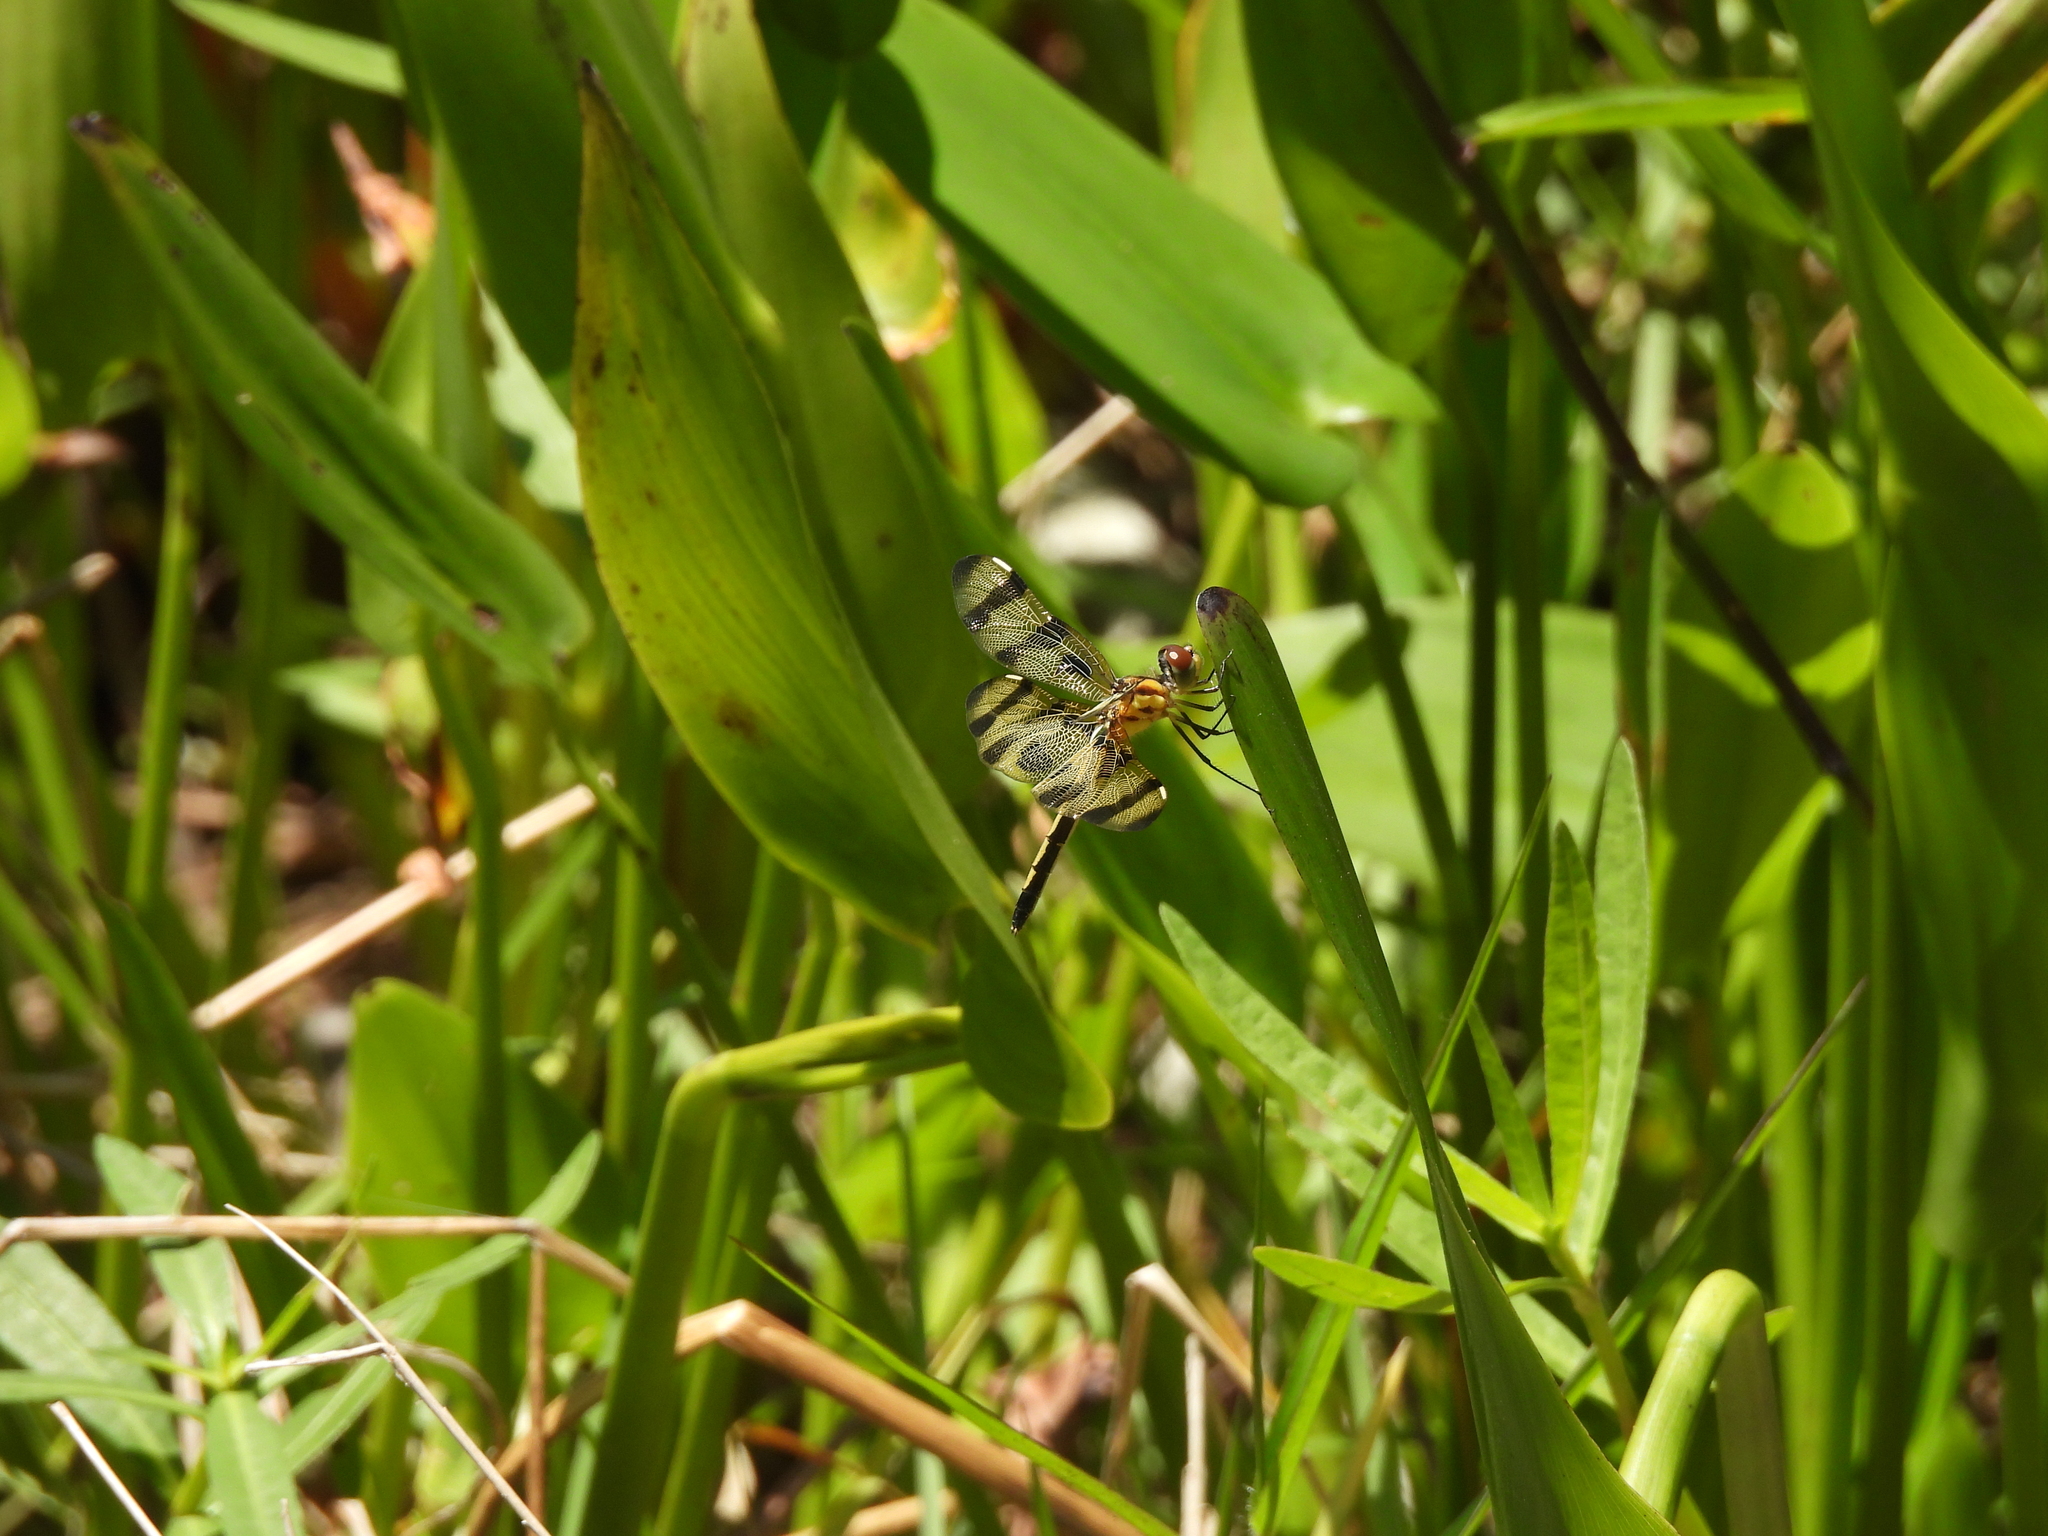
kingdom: Animalia
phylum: Arthropoda
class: Insecta
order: Odonata
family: Libellulidae
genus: Celithemis
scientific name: Celithemis eponina
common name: Halloween pennant
